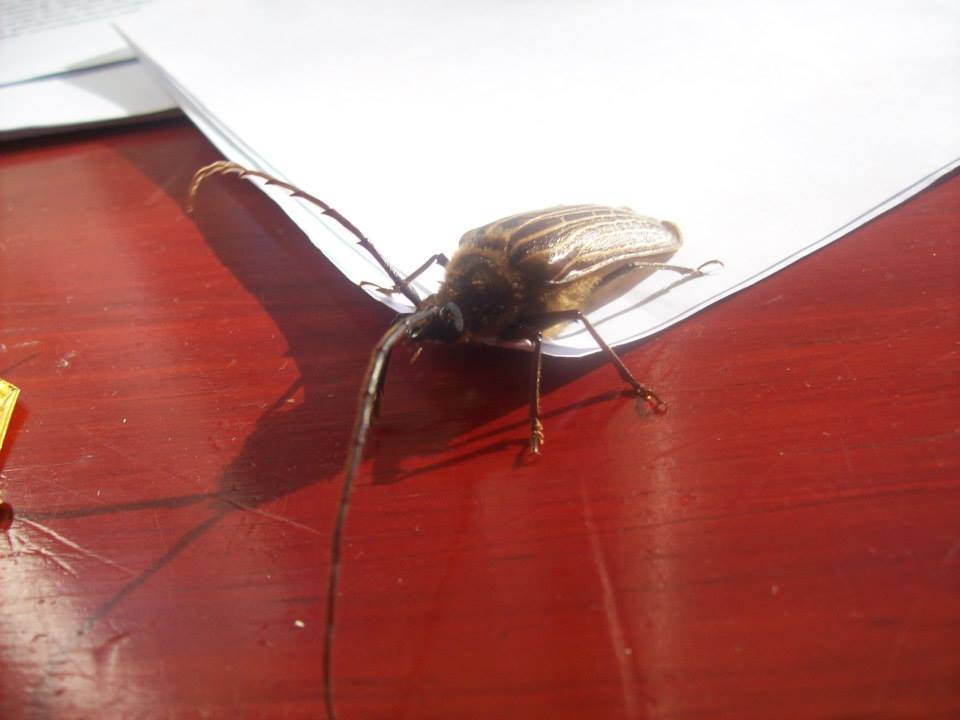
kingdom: Animalia
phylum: Arthropoda
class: Insecta
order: Coleoptera
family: Cerambycidae
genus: Prionoplus
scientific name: Prionoplus reticularis
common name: Huhu beetle
